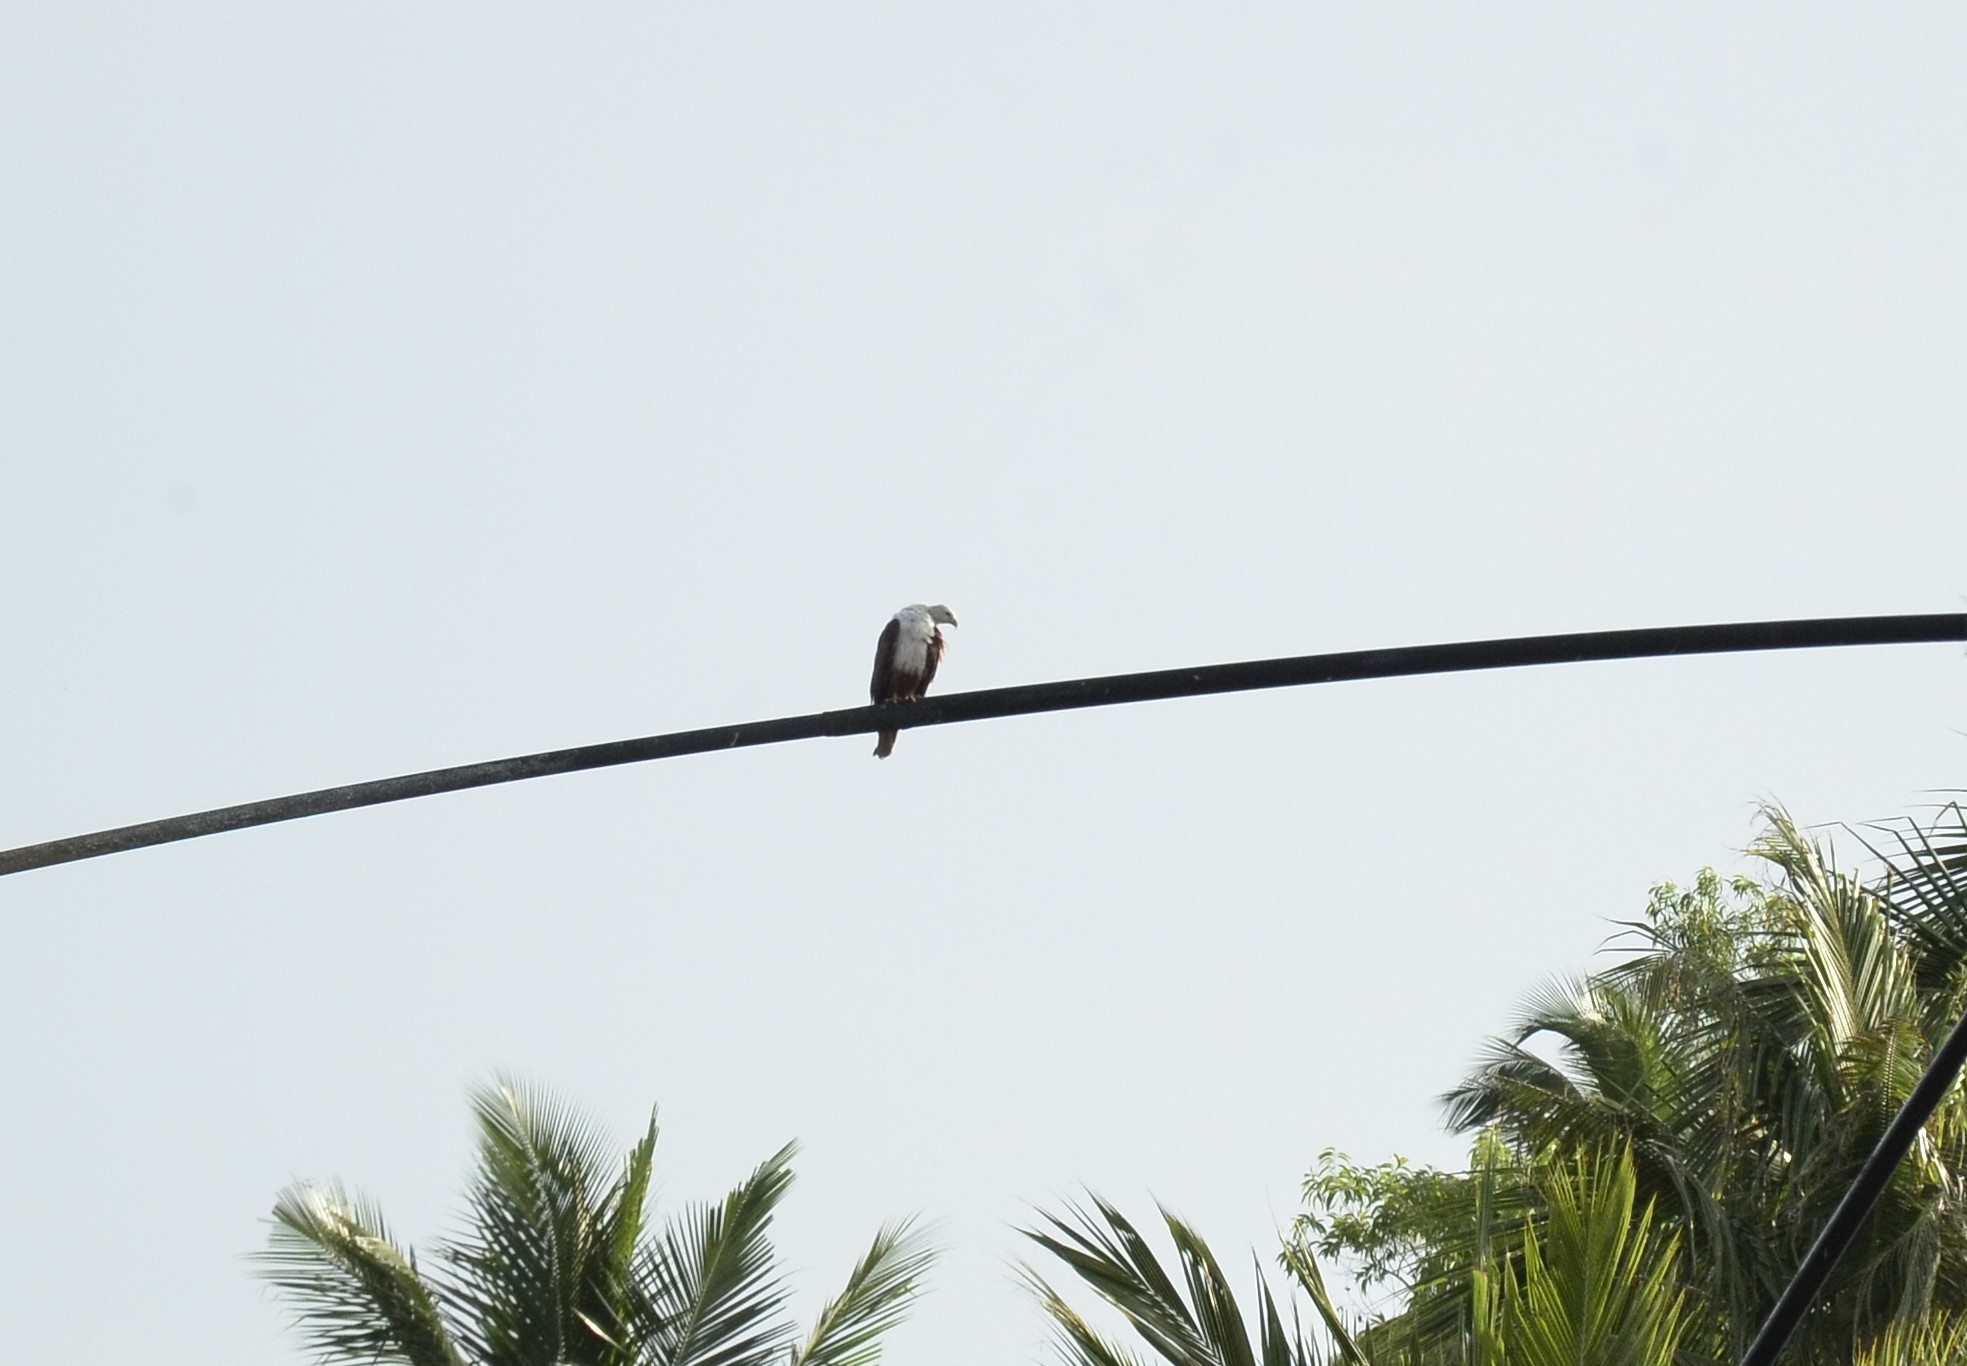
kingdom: Animalia
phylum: Chordata
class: Aves
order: Accipitriformes
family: Accipitridae
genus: Haliastur
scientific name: Haliastur indus
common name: Brahminy kite
